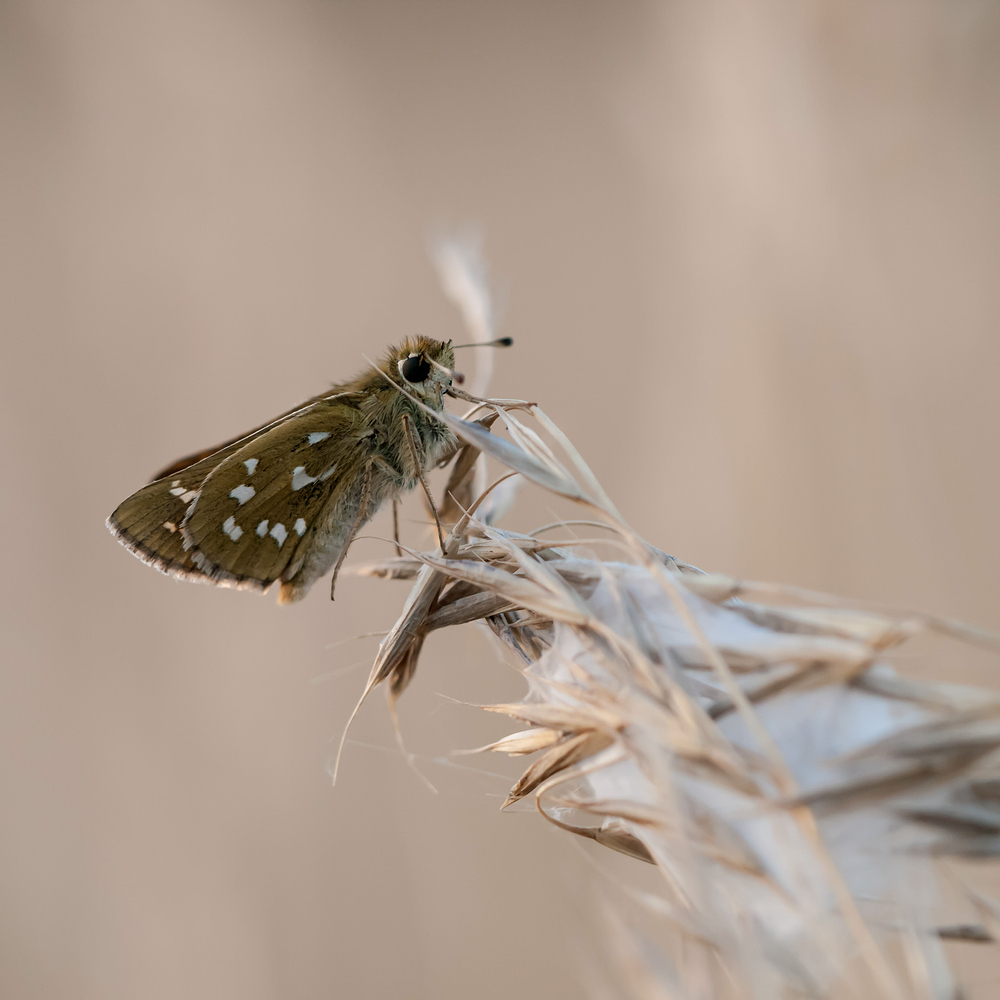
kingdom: Animalia
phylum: Arthropoda
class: Insecta
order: Lepidoptera
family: Hesperiidae
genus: Hesperia
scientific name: Hesperia comma
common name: Common branded skipper
